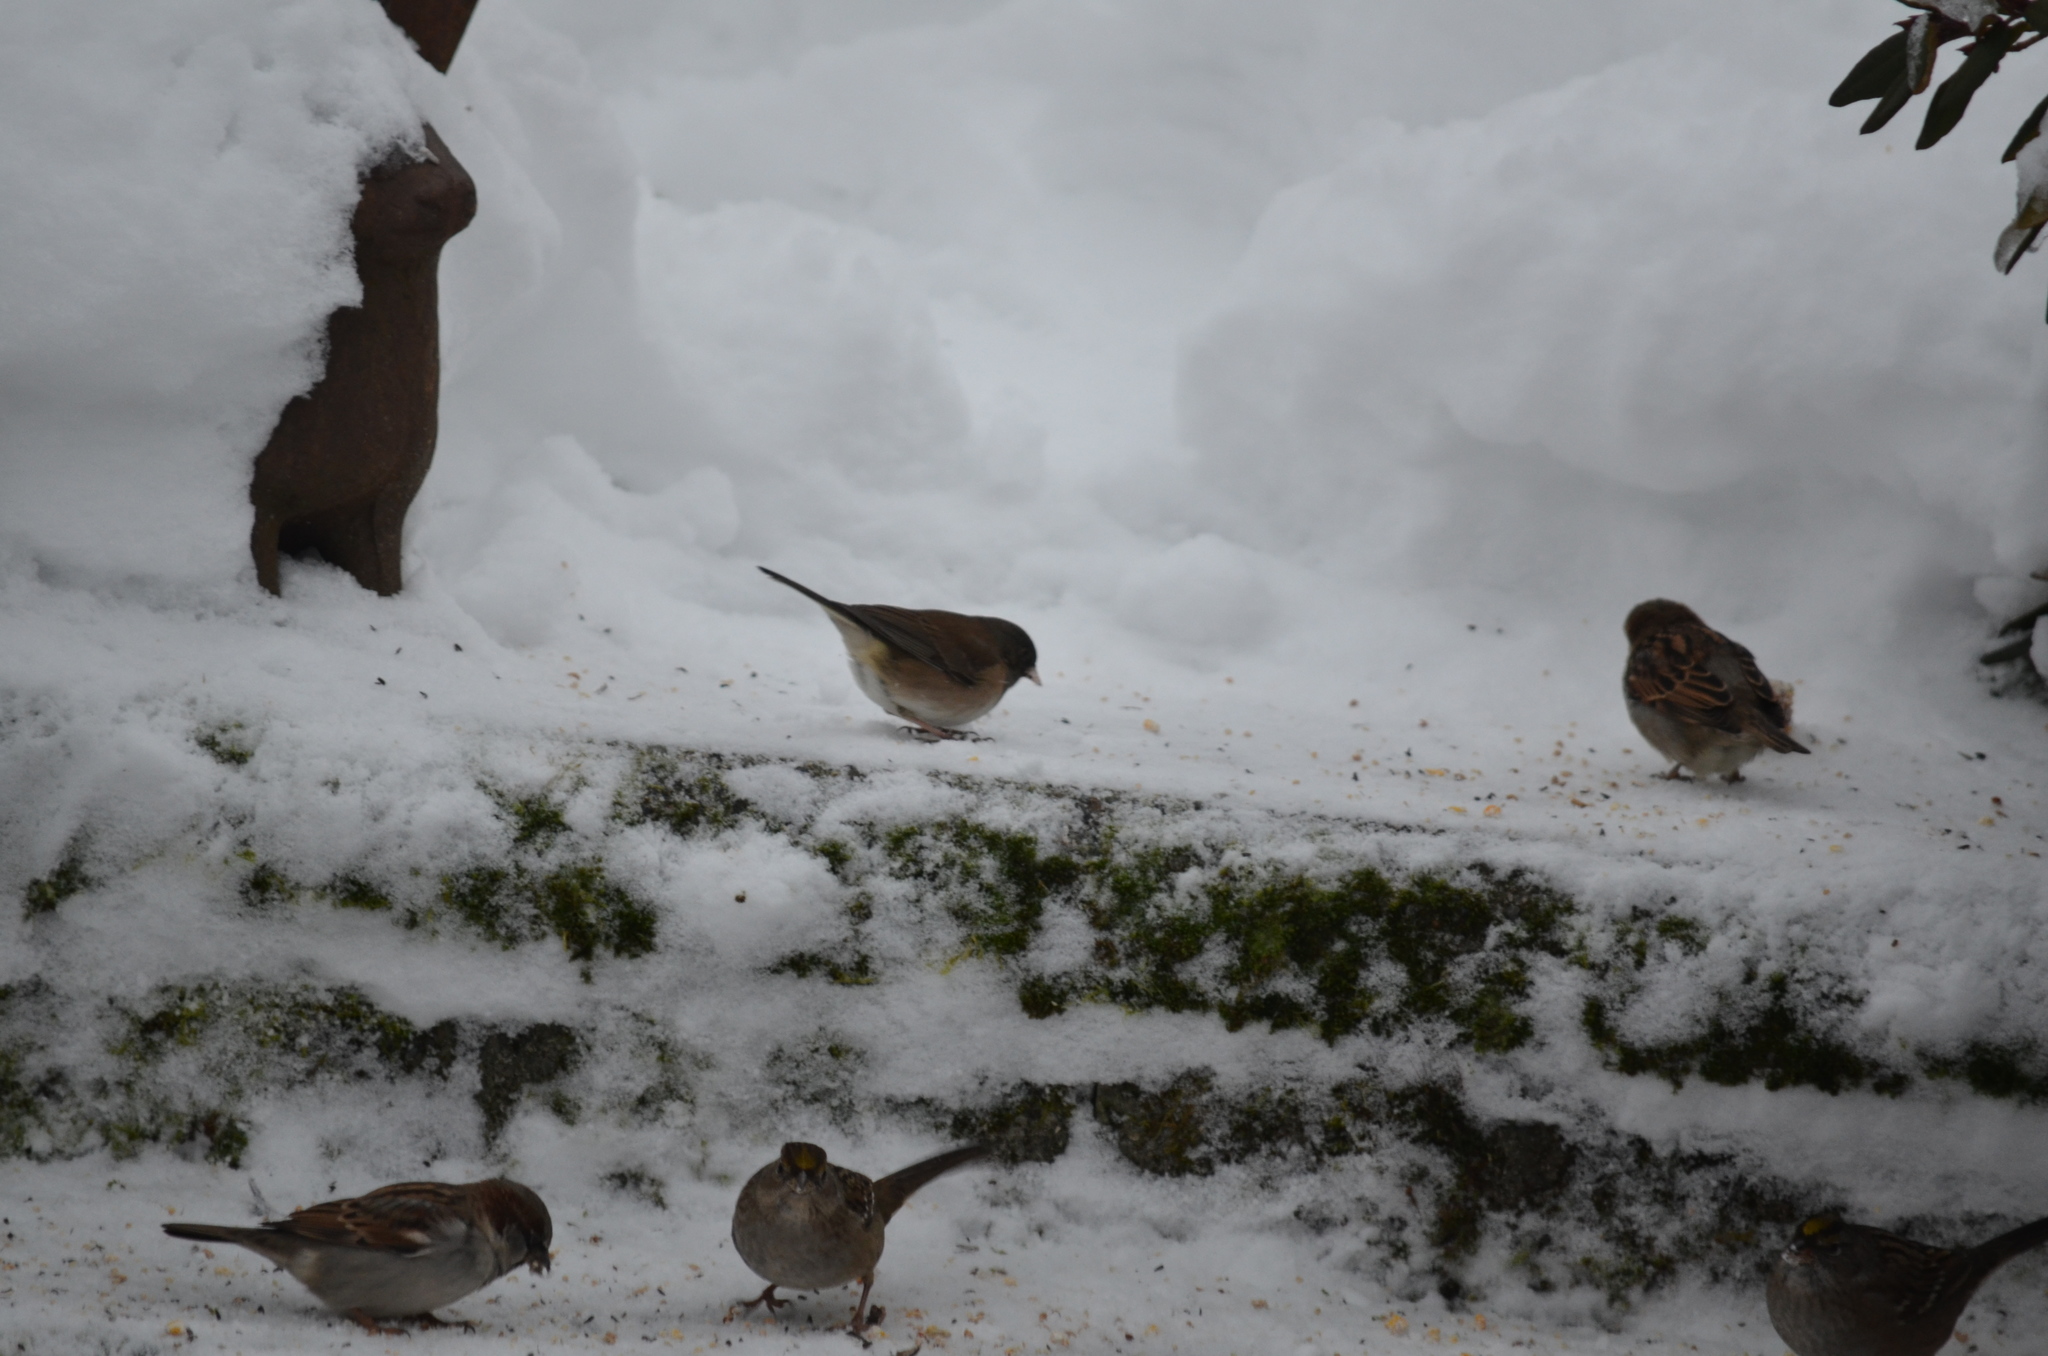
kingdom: Animalia
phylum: Chordata
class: Aves
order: Passeriformes
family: Passeridae
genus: Passer
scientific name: Passer domesticus
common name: House sparrow
